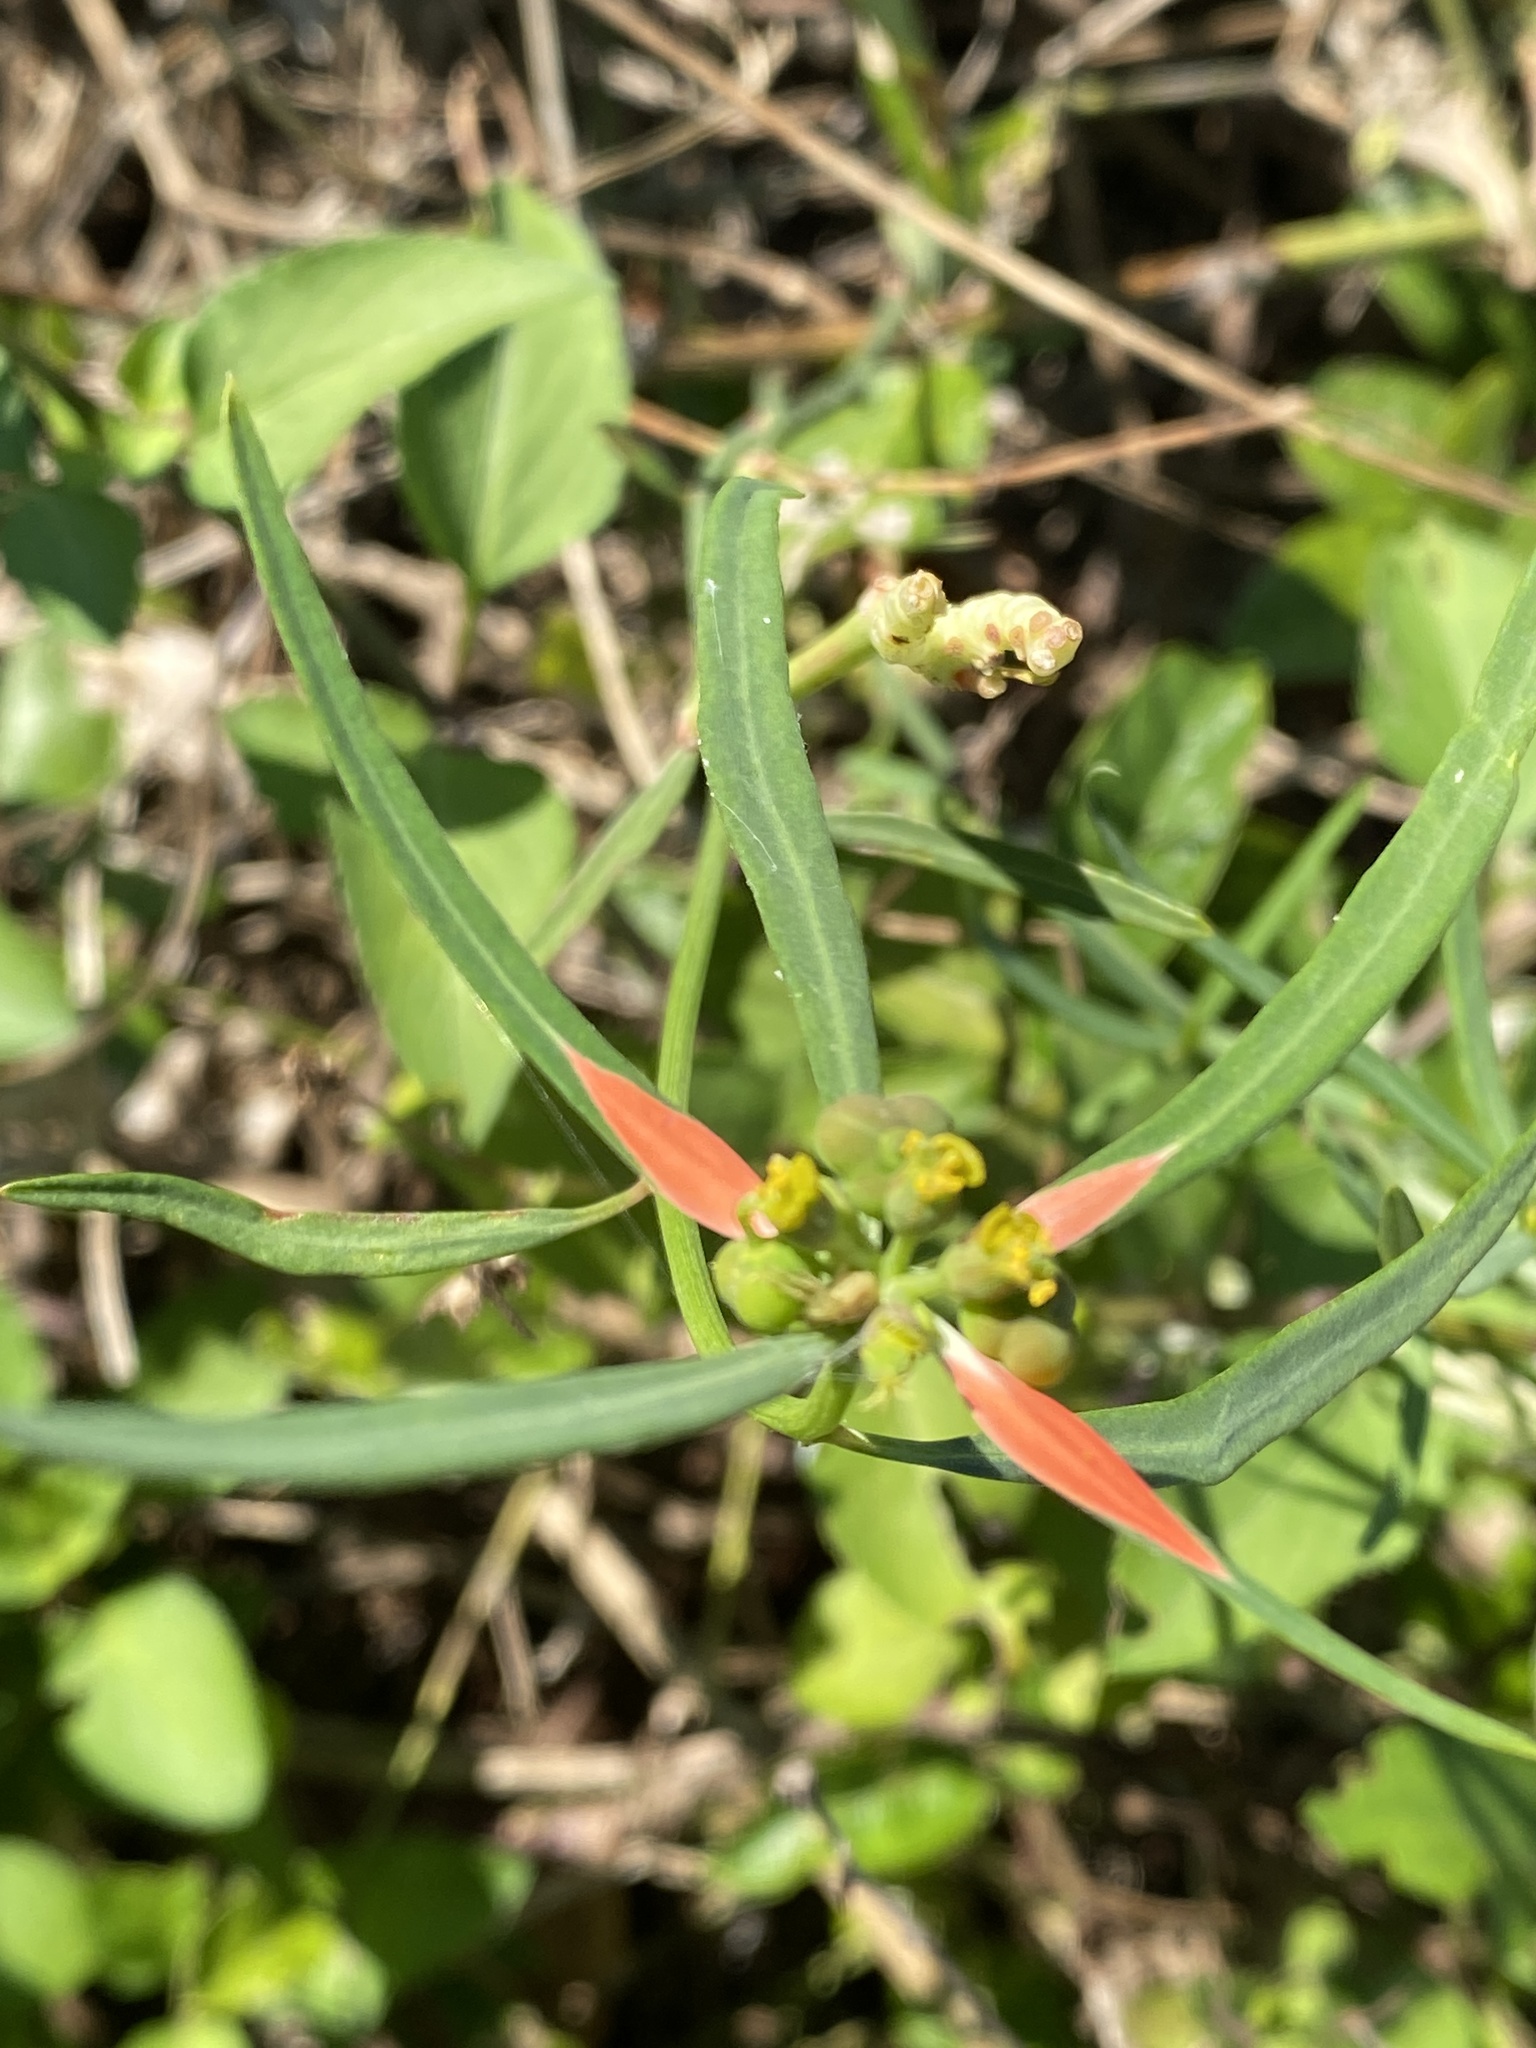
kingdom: Plantae
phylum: Tracheophyta
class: Magnoliopsida
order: Malpighiales
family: Euphorbiaceae
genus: Euphorbia
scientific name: Euphorbia heterophylla
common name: Mexican fireplant
